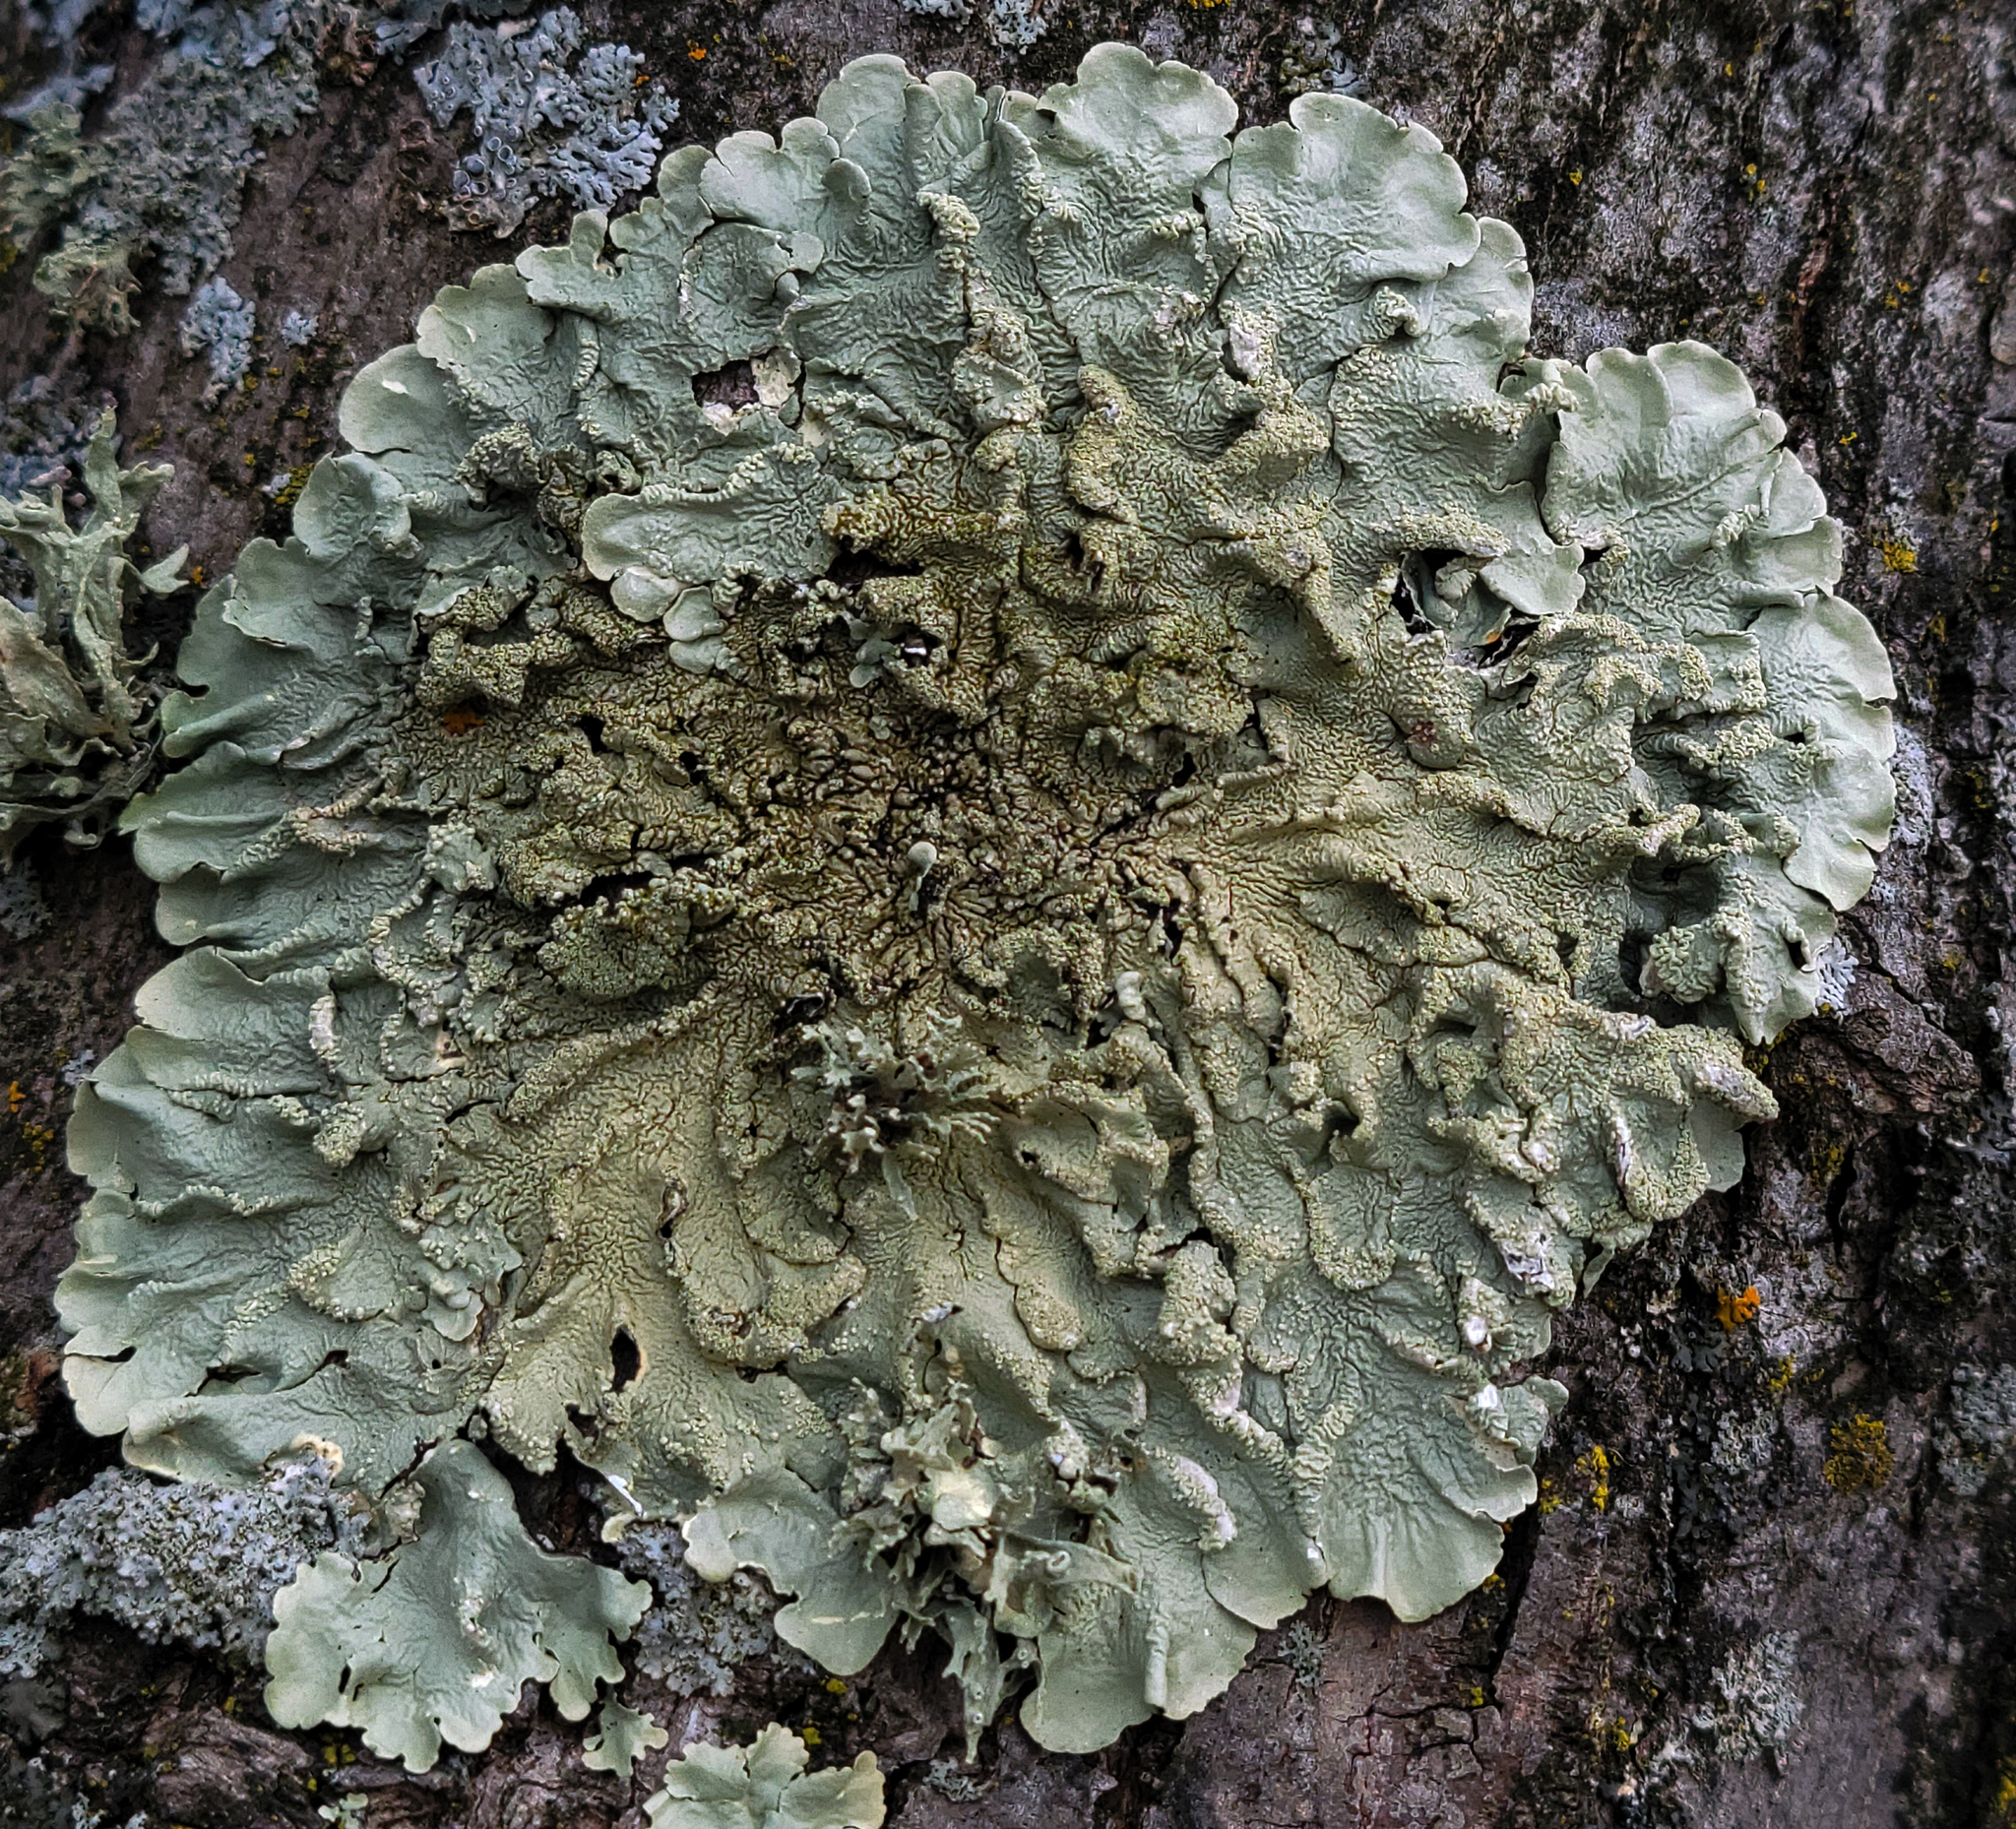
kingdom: Fungi
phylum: Ascomycota
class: Lecanoromycetes
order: Lecanorales
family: Parmeliaceae
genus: Flavoparmelia
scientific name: Flavoparmelia caperata
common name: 40-mile per hour lichen
